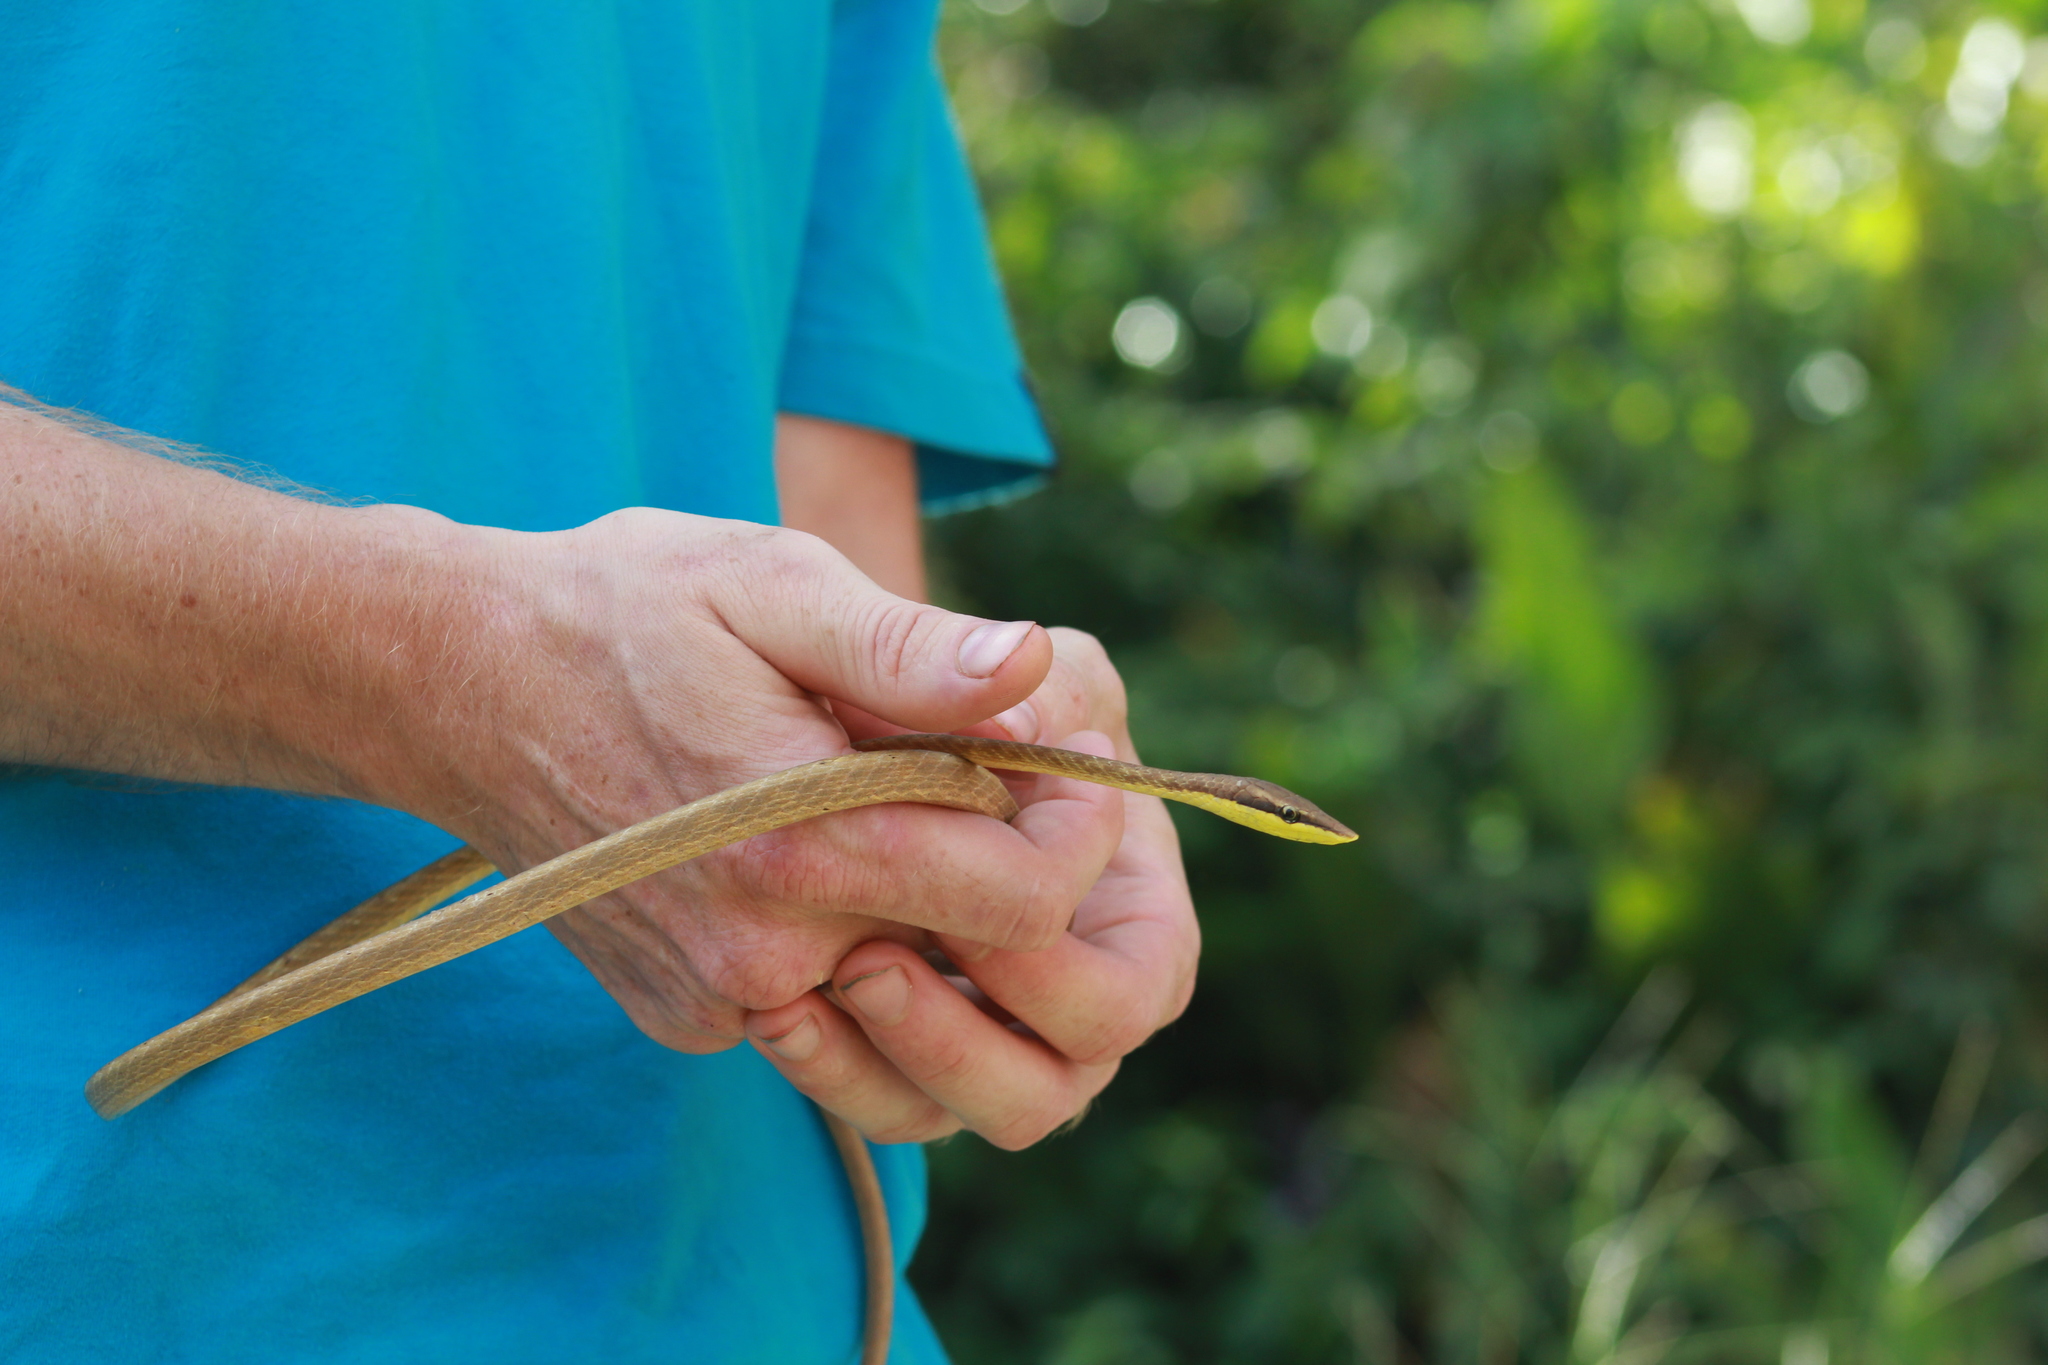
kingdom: Animalia
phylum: Chordata
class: Squamata
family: Colubridae
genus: Oxybelis
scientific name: Oxybelis rutherfordi
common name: Rutherford’s vine snake
